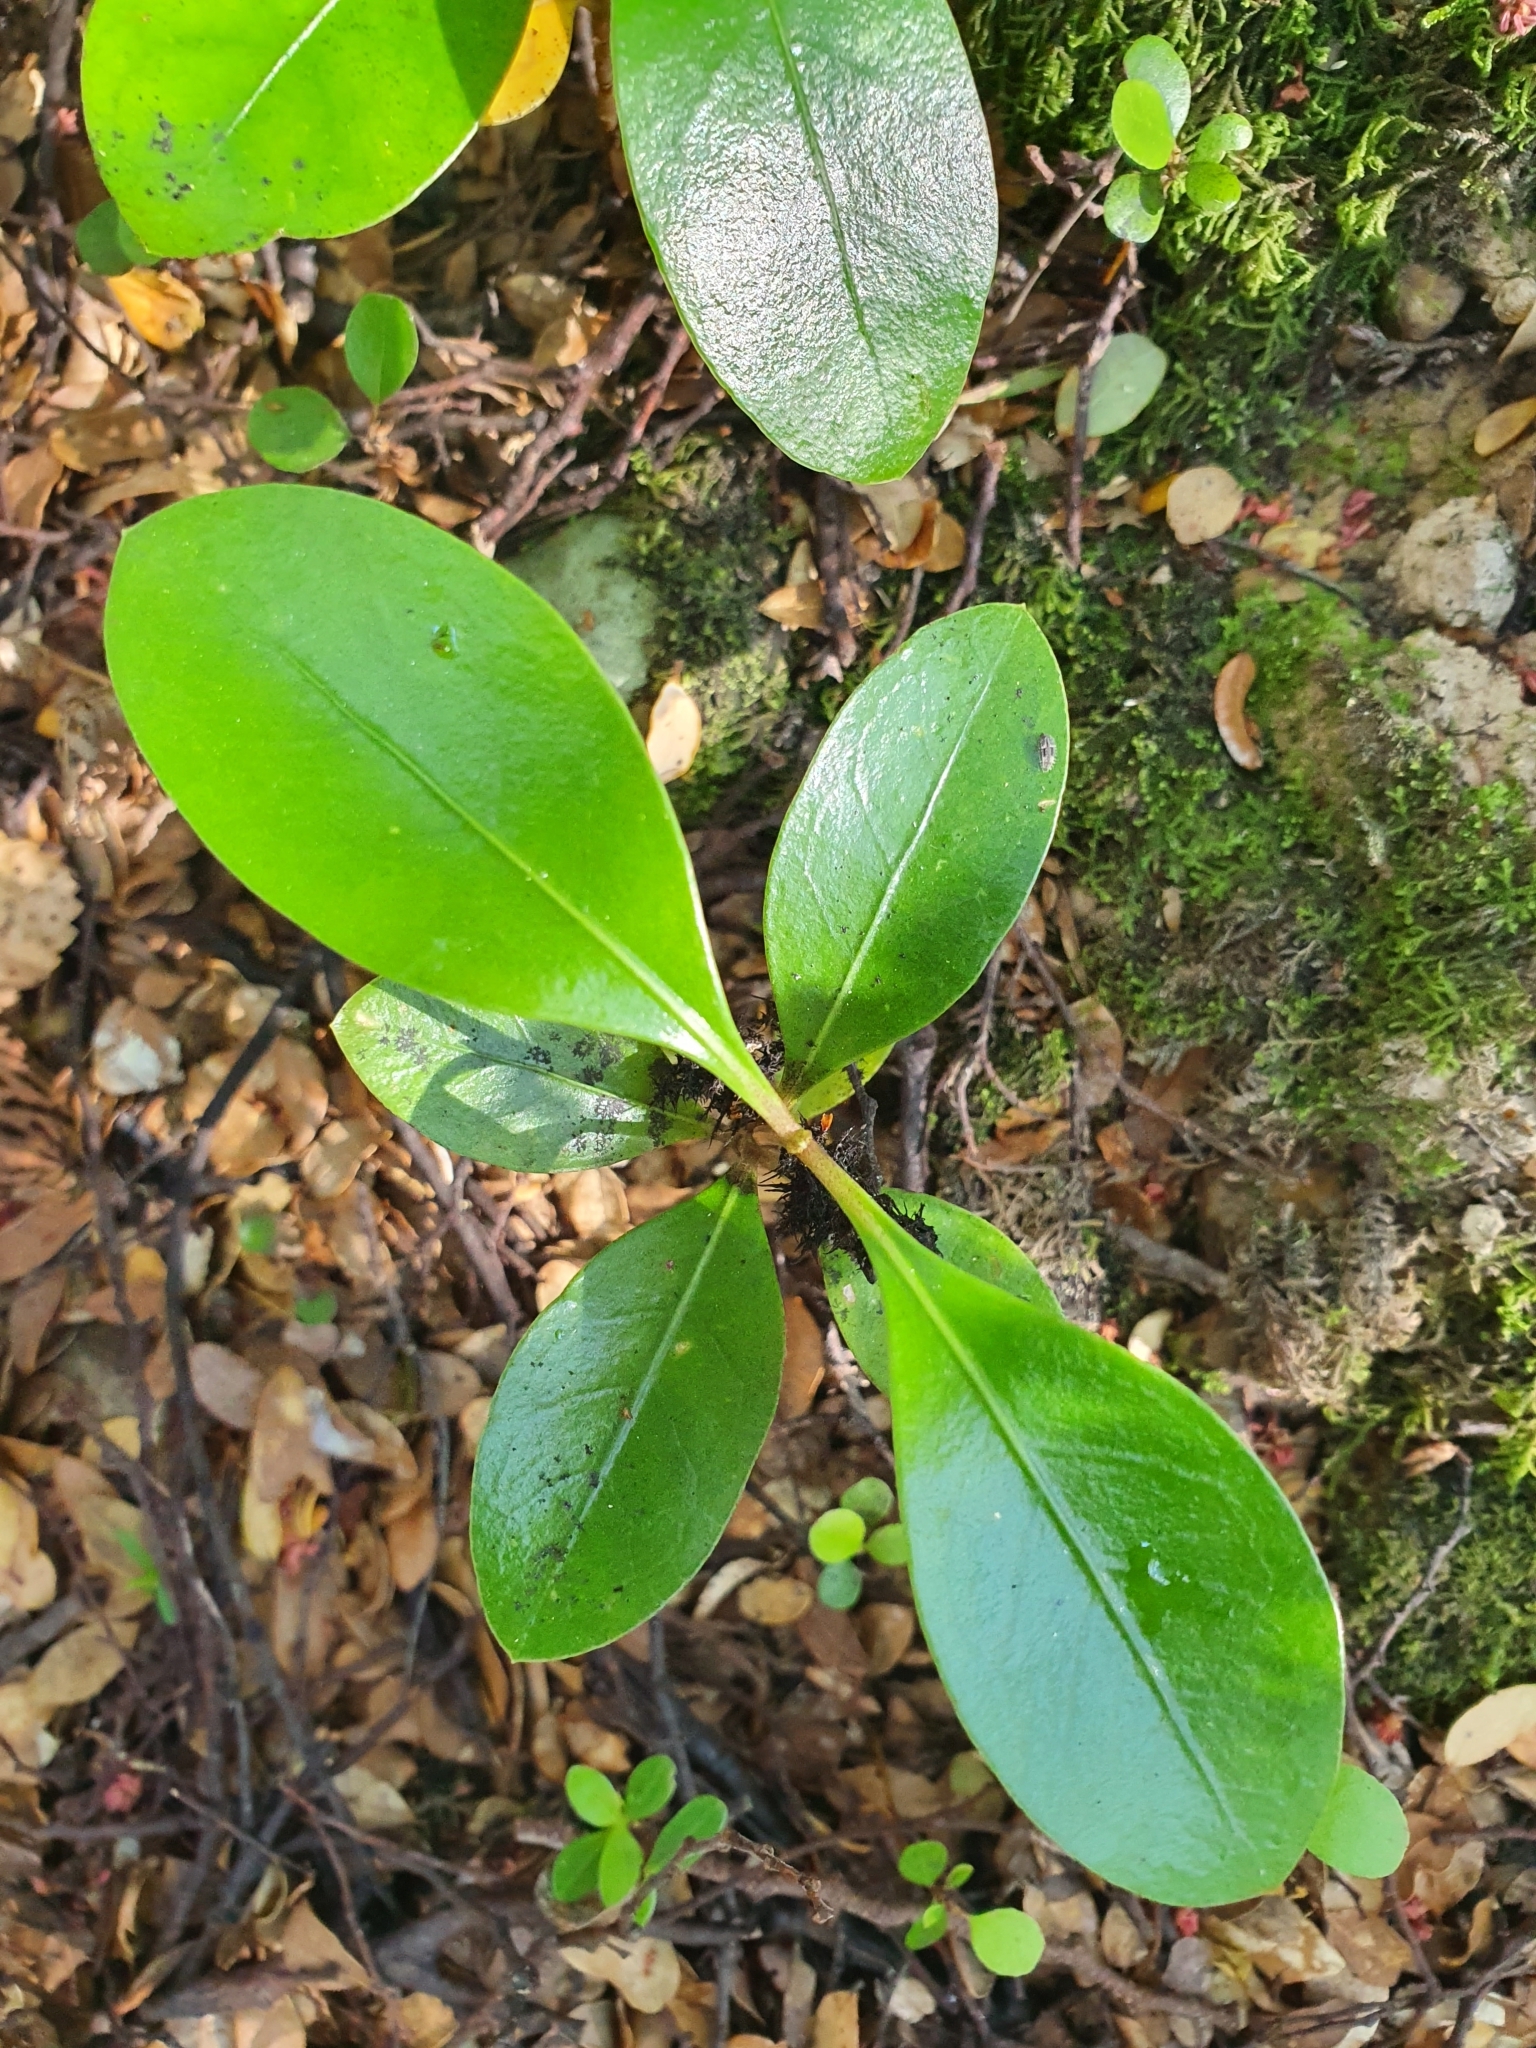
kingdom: Plantae
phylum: Tracheophyta
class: Magnoliopsida
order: Gentianales
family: Rubiaceae
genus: Coprosma
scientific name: Coprosma lucida
